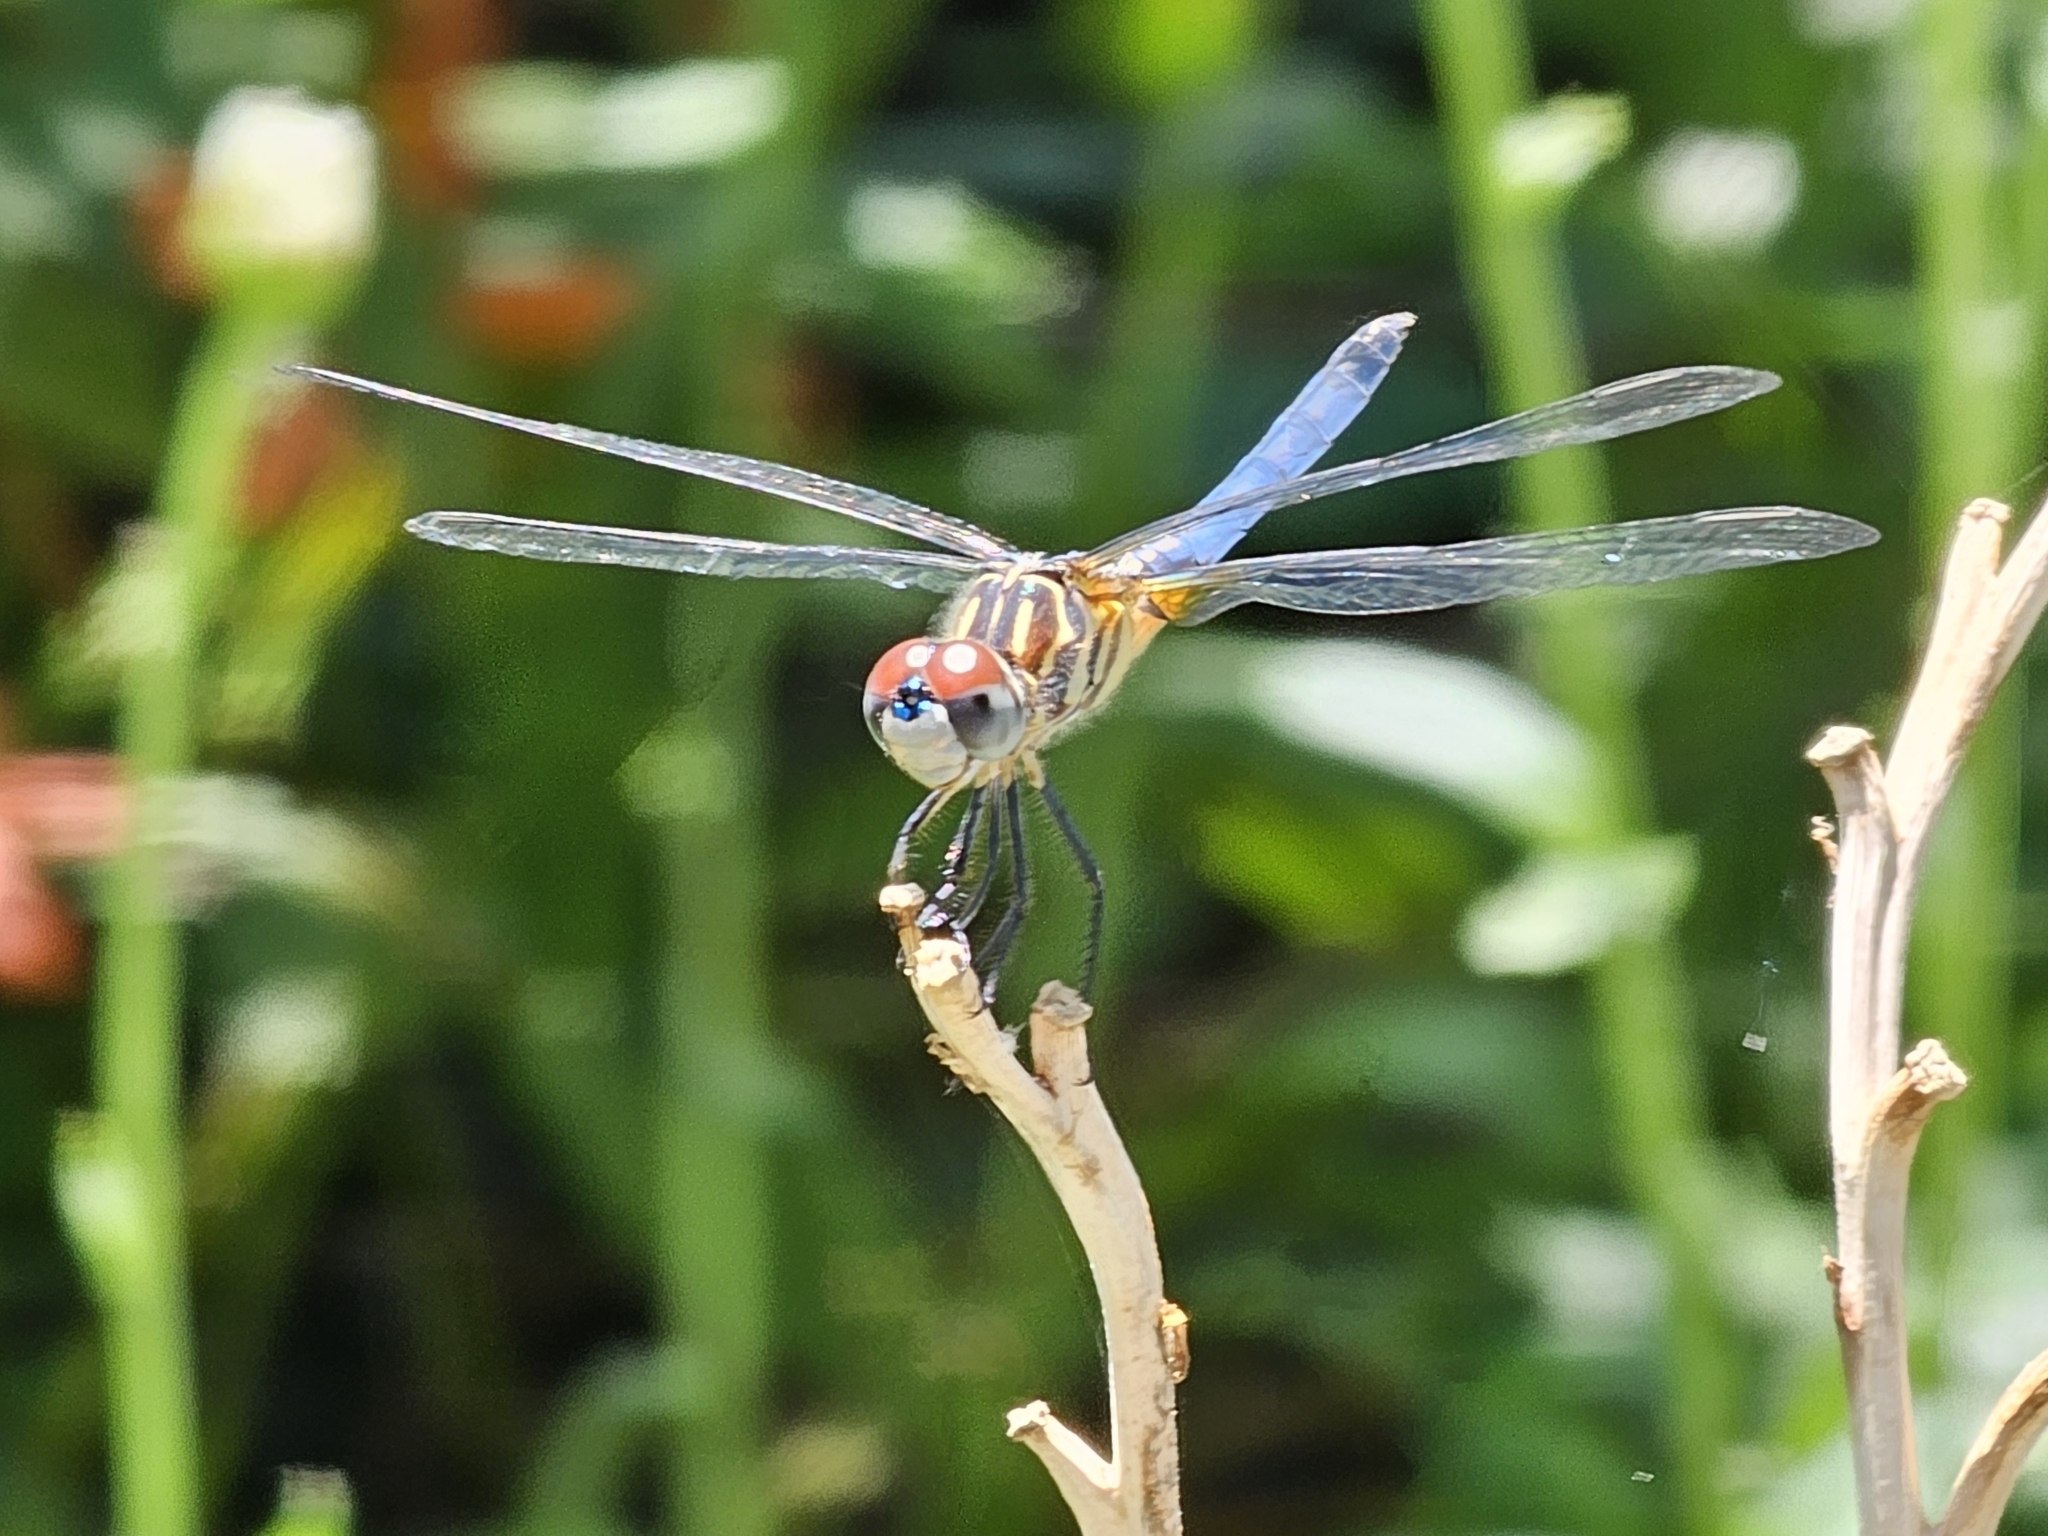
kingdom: Animalia
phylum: Arthropoda
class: Insecta
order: Odonata
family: Libellulidae
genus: Pachydiplax
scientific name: Pachydiplax longipennis
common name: Blue dasher
